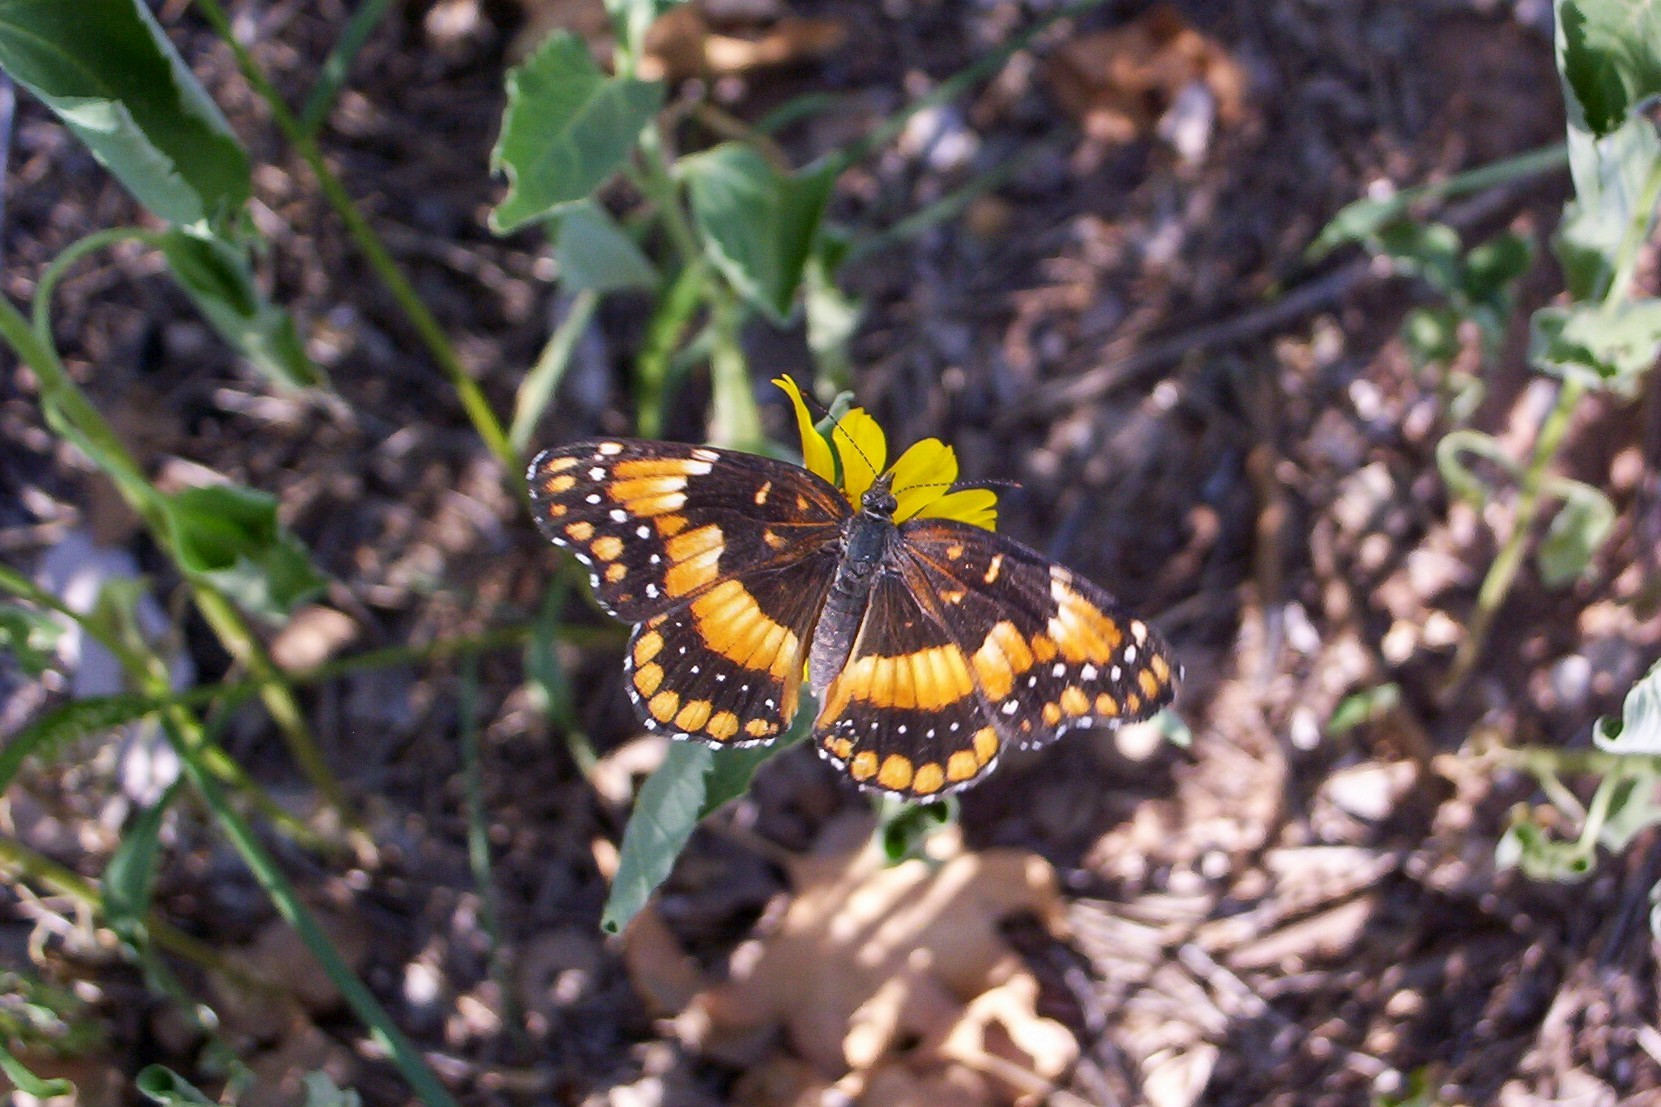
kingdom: Animalia
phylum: Arthropoda
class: Insecta
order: Lepidoptera
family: Nymphalidae
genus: Chlosyne
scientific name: Chlosyne californica
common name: California patch
